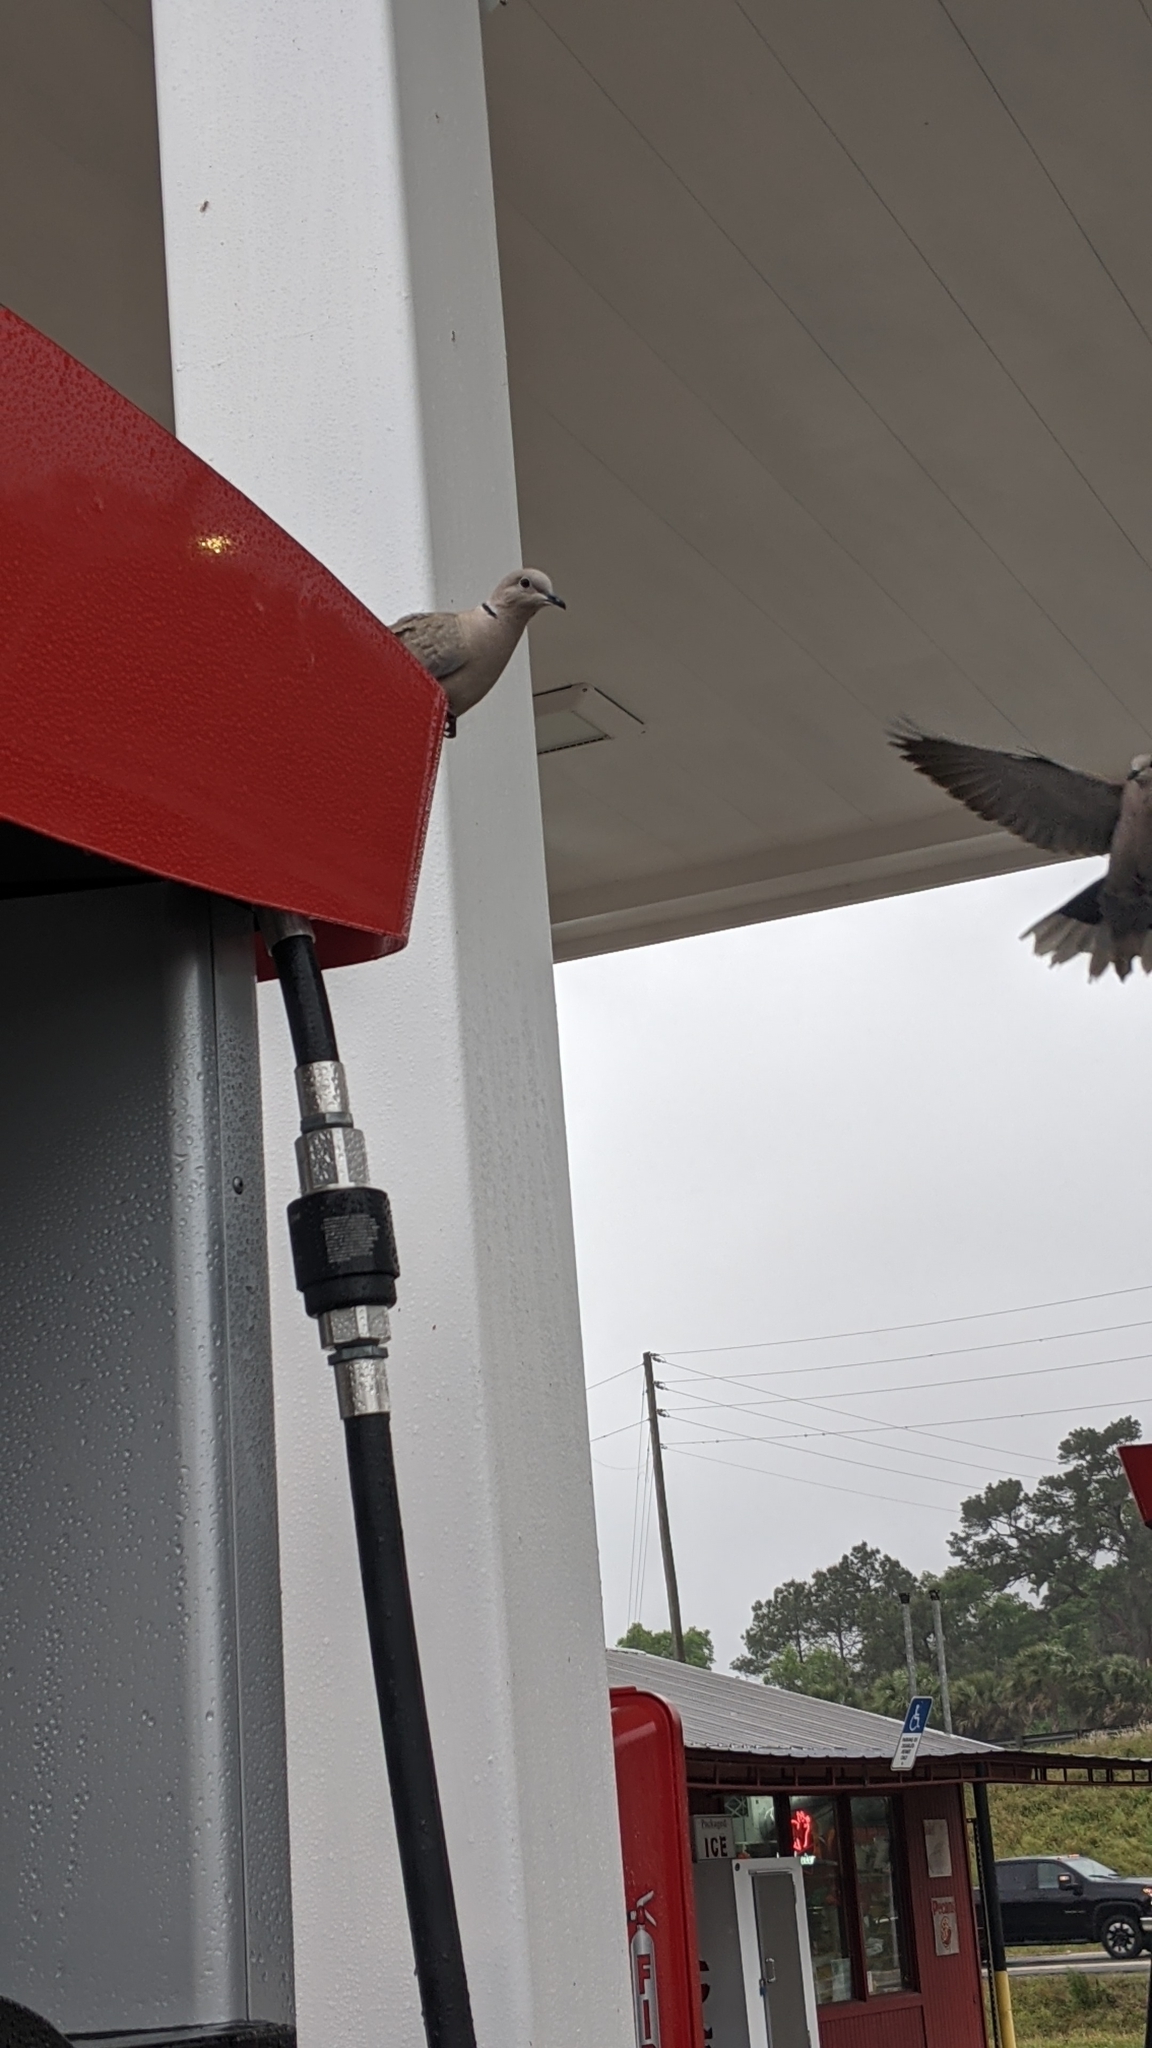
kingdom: Animalia
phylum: Chordata
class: Aves
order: Columbiformes
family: Columbidae
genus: Streptopelia
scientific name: Streptopelia decaocto
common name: Eurasian collared dove
